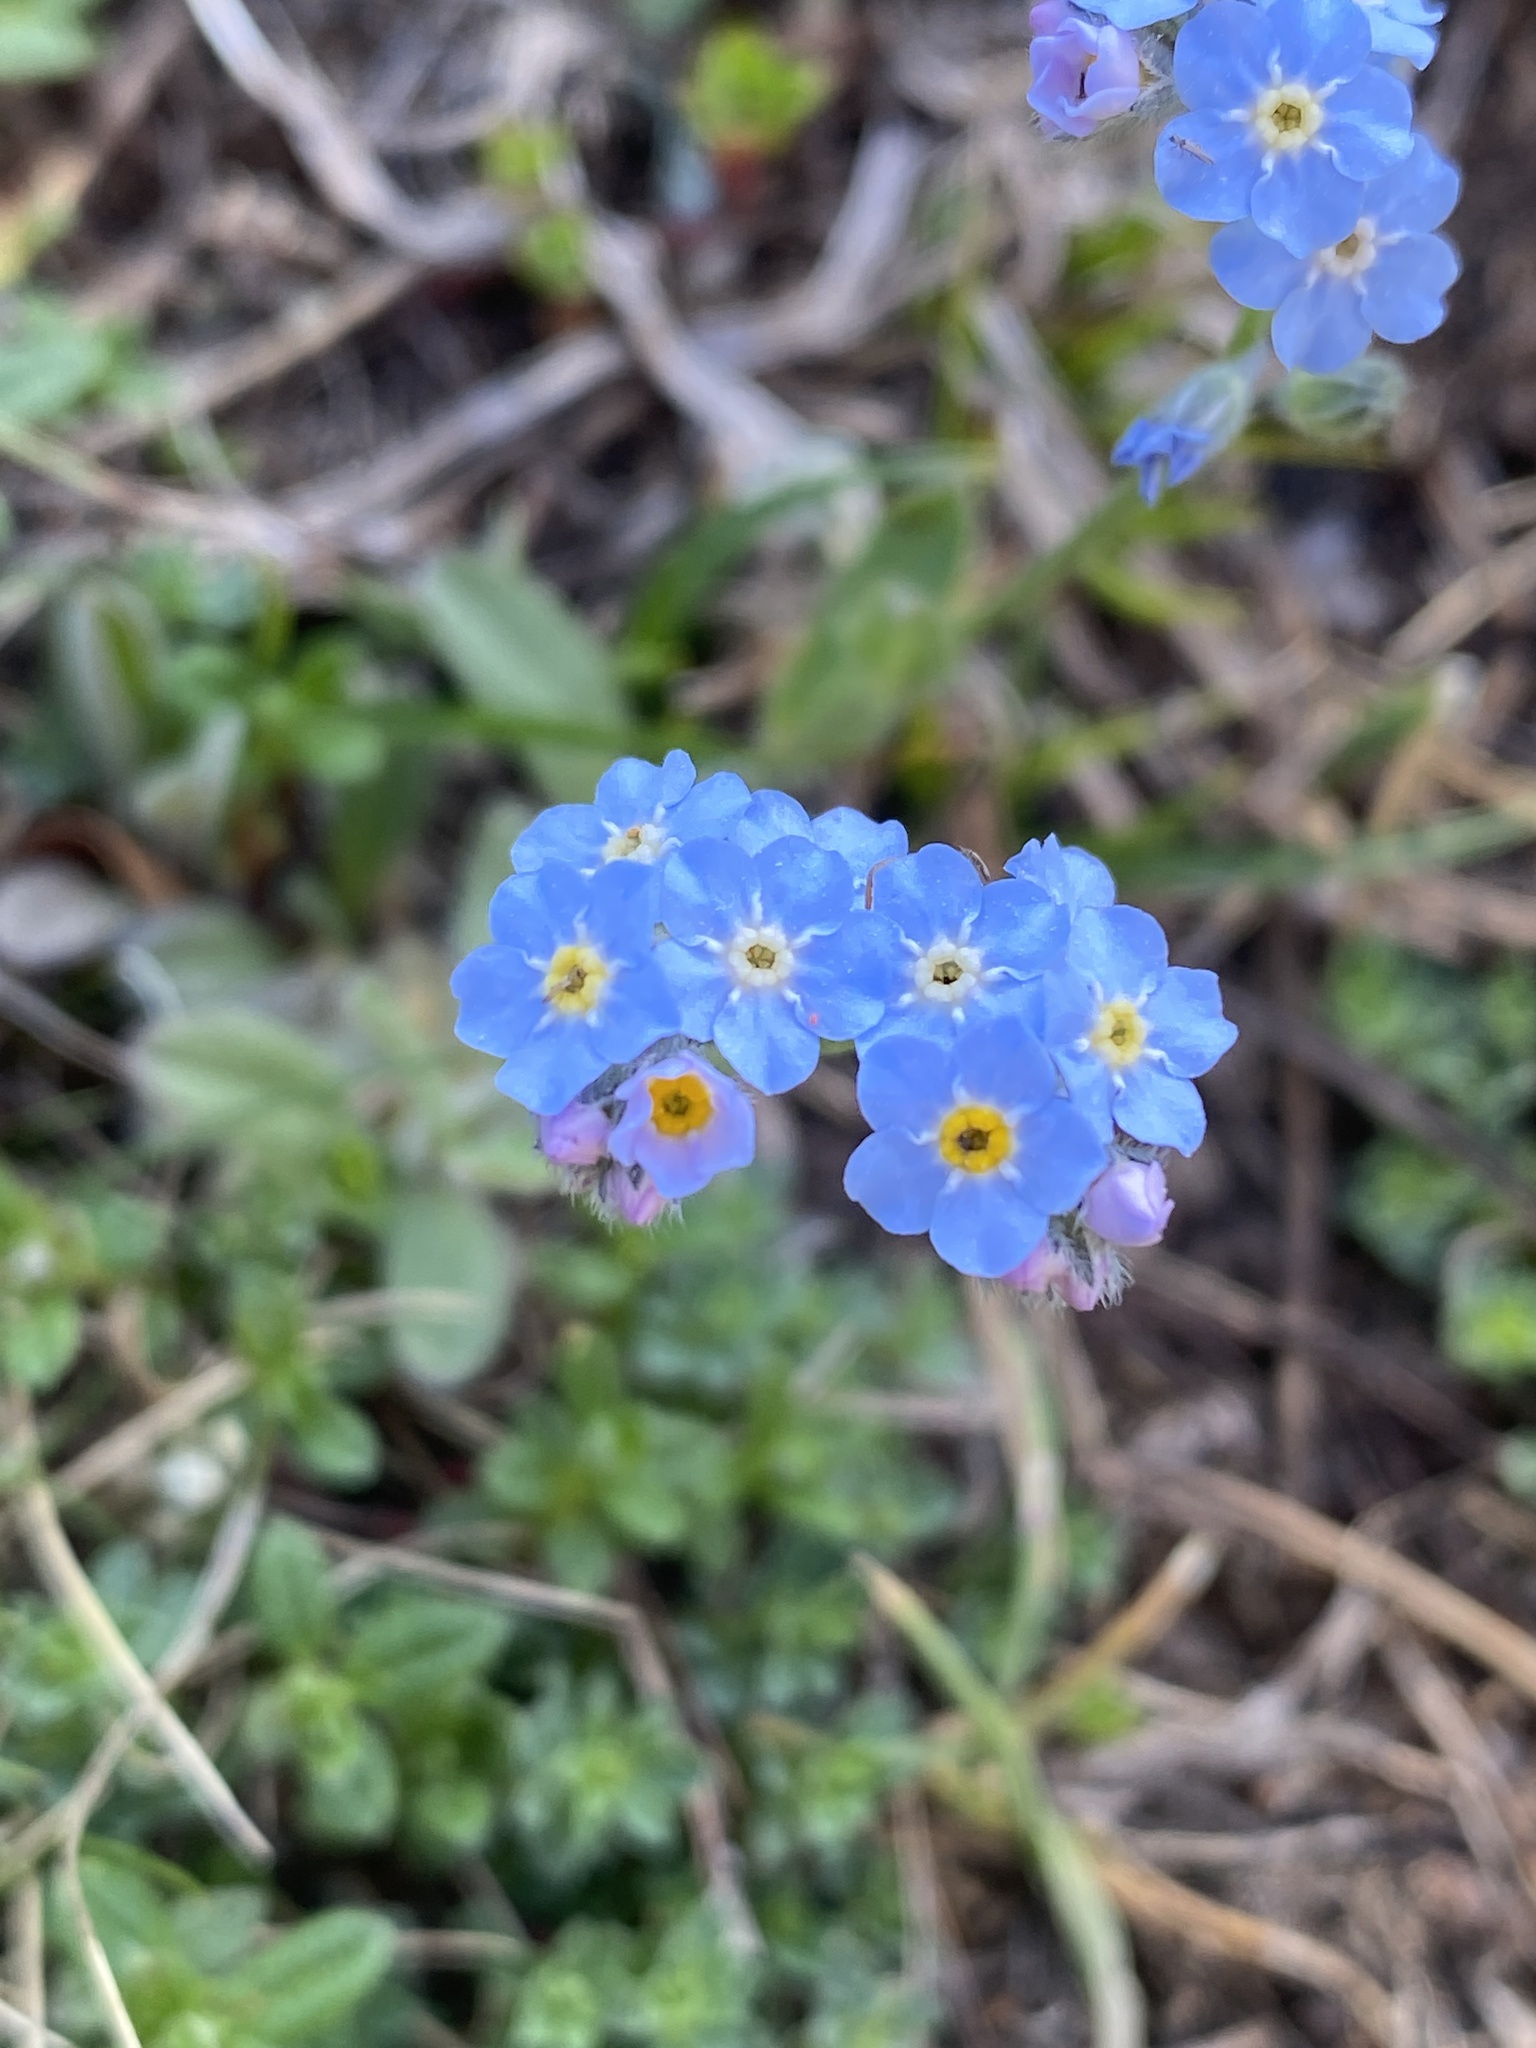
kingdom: Plantae
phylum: Tracheophyta
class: Magnoliopsida
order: Boraginales
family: Boraginaceae
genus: Myosotis
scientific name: Myosotis alpestris
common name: Alpine forget-me-not
